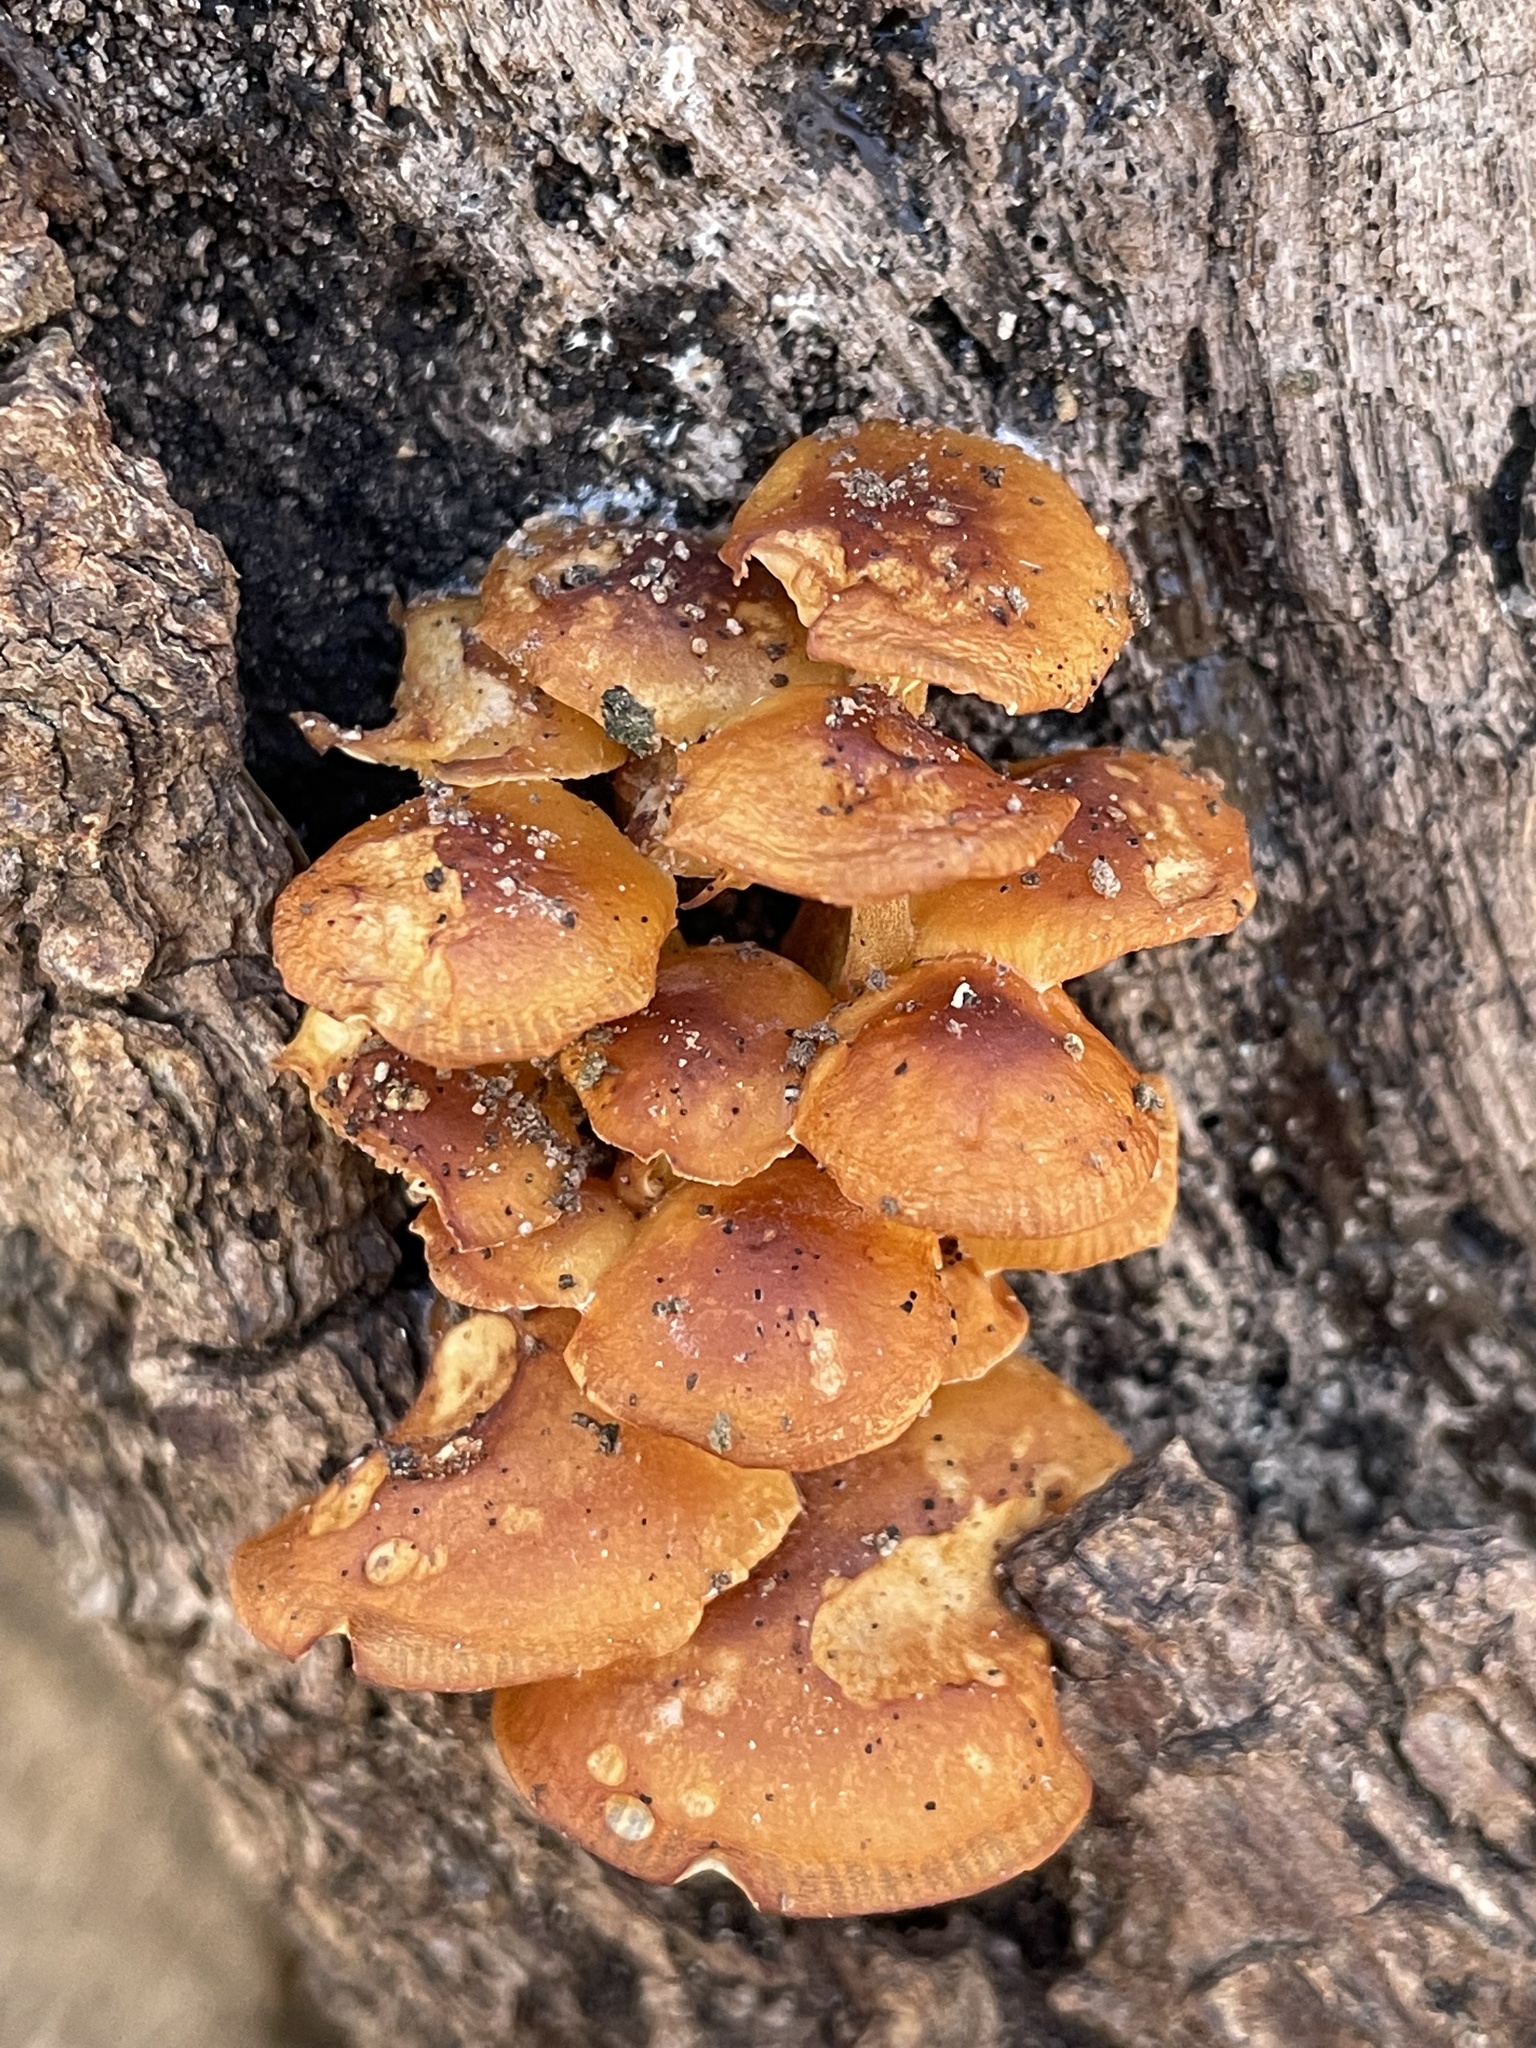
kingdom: Fungi
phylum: Basidiomycota
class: Agaricomycetes
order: Agaricales
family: Physalacriaceae
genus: Flammulina
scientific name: Flammulina velutipes
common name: Velvet shank
